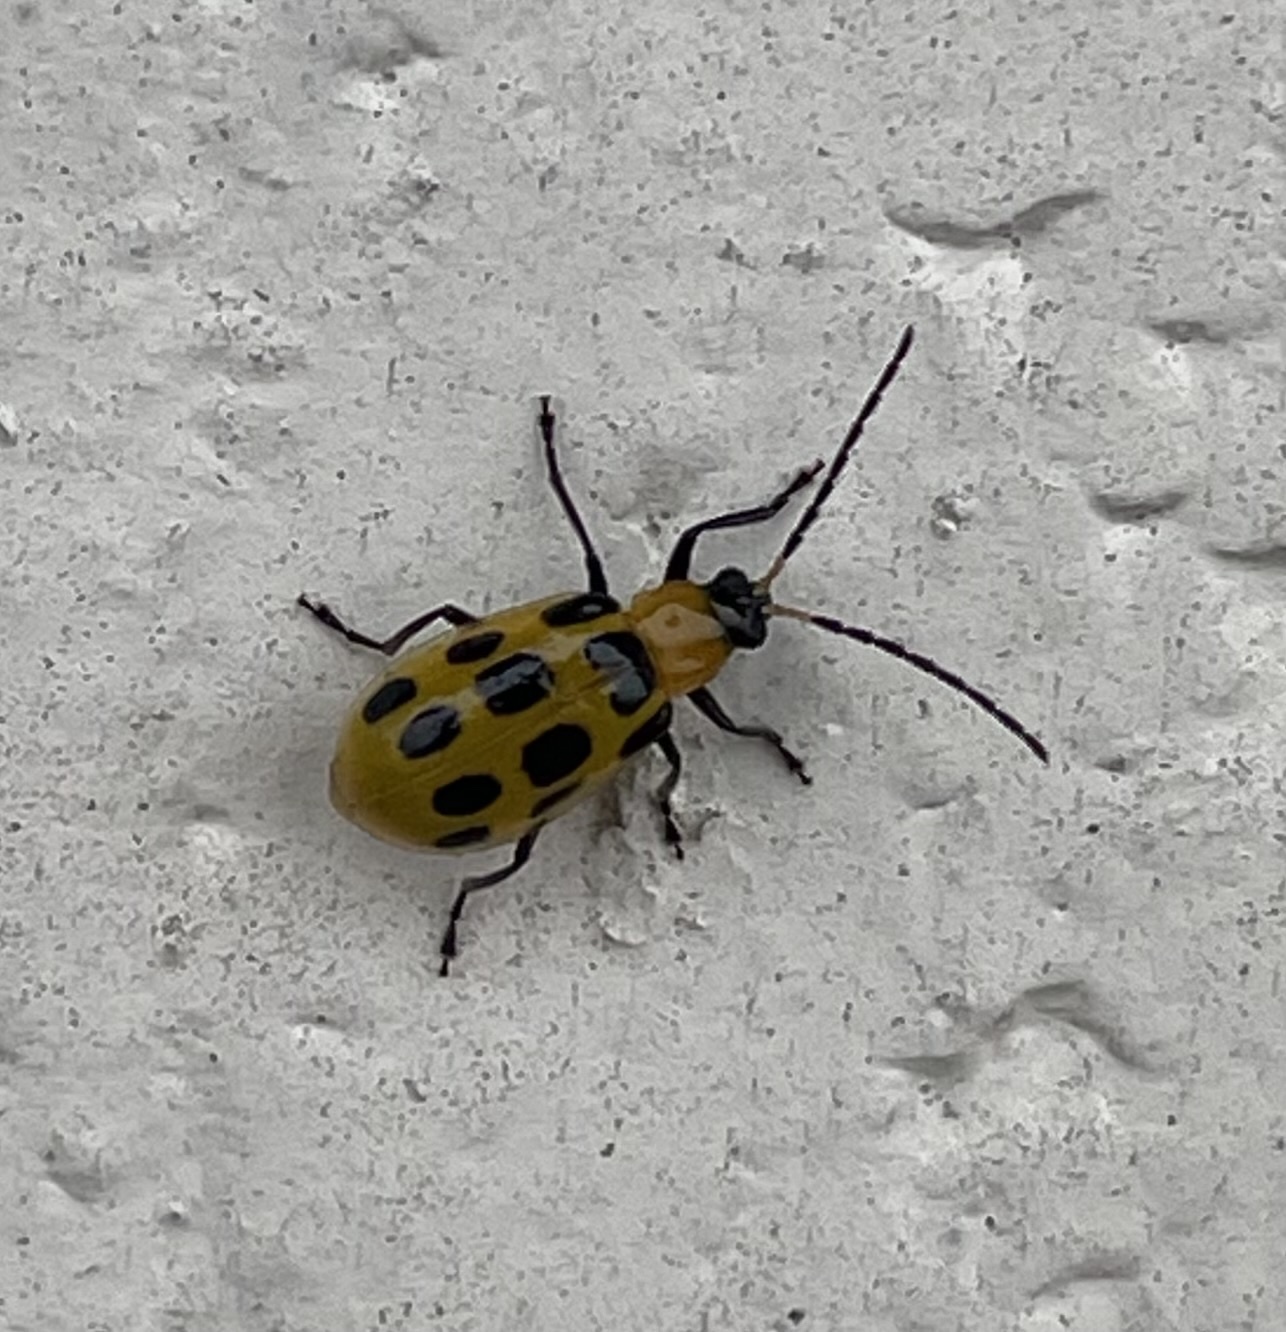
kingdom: Animalia
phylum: Arthropoda
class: Insecta
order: Coleoptera
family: Chrysomelidae
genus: Diabrotica
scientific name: Diabrotica undecimpunctata
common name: Spotted cucumber beetle
